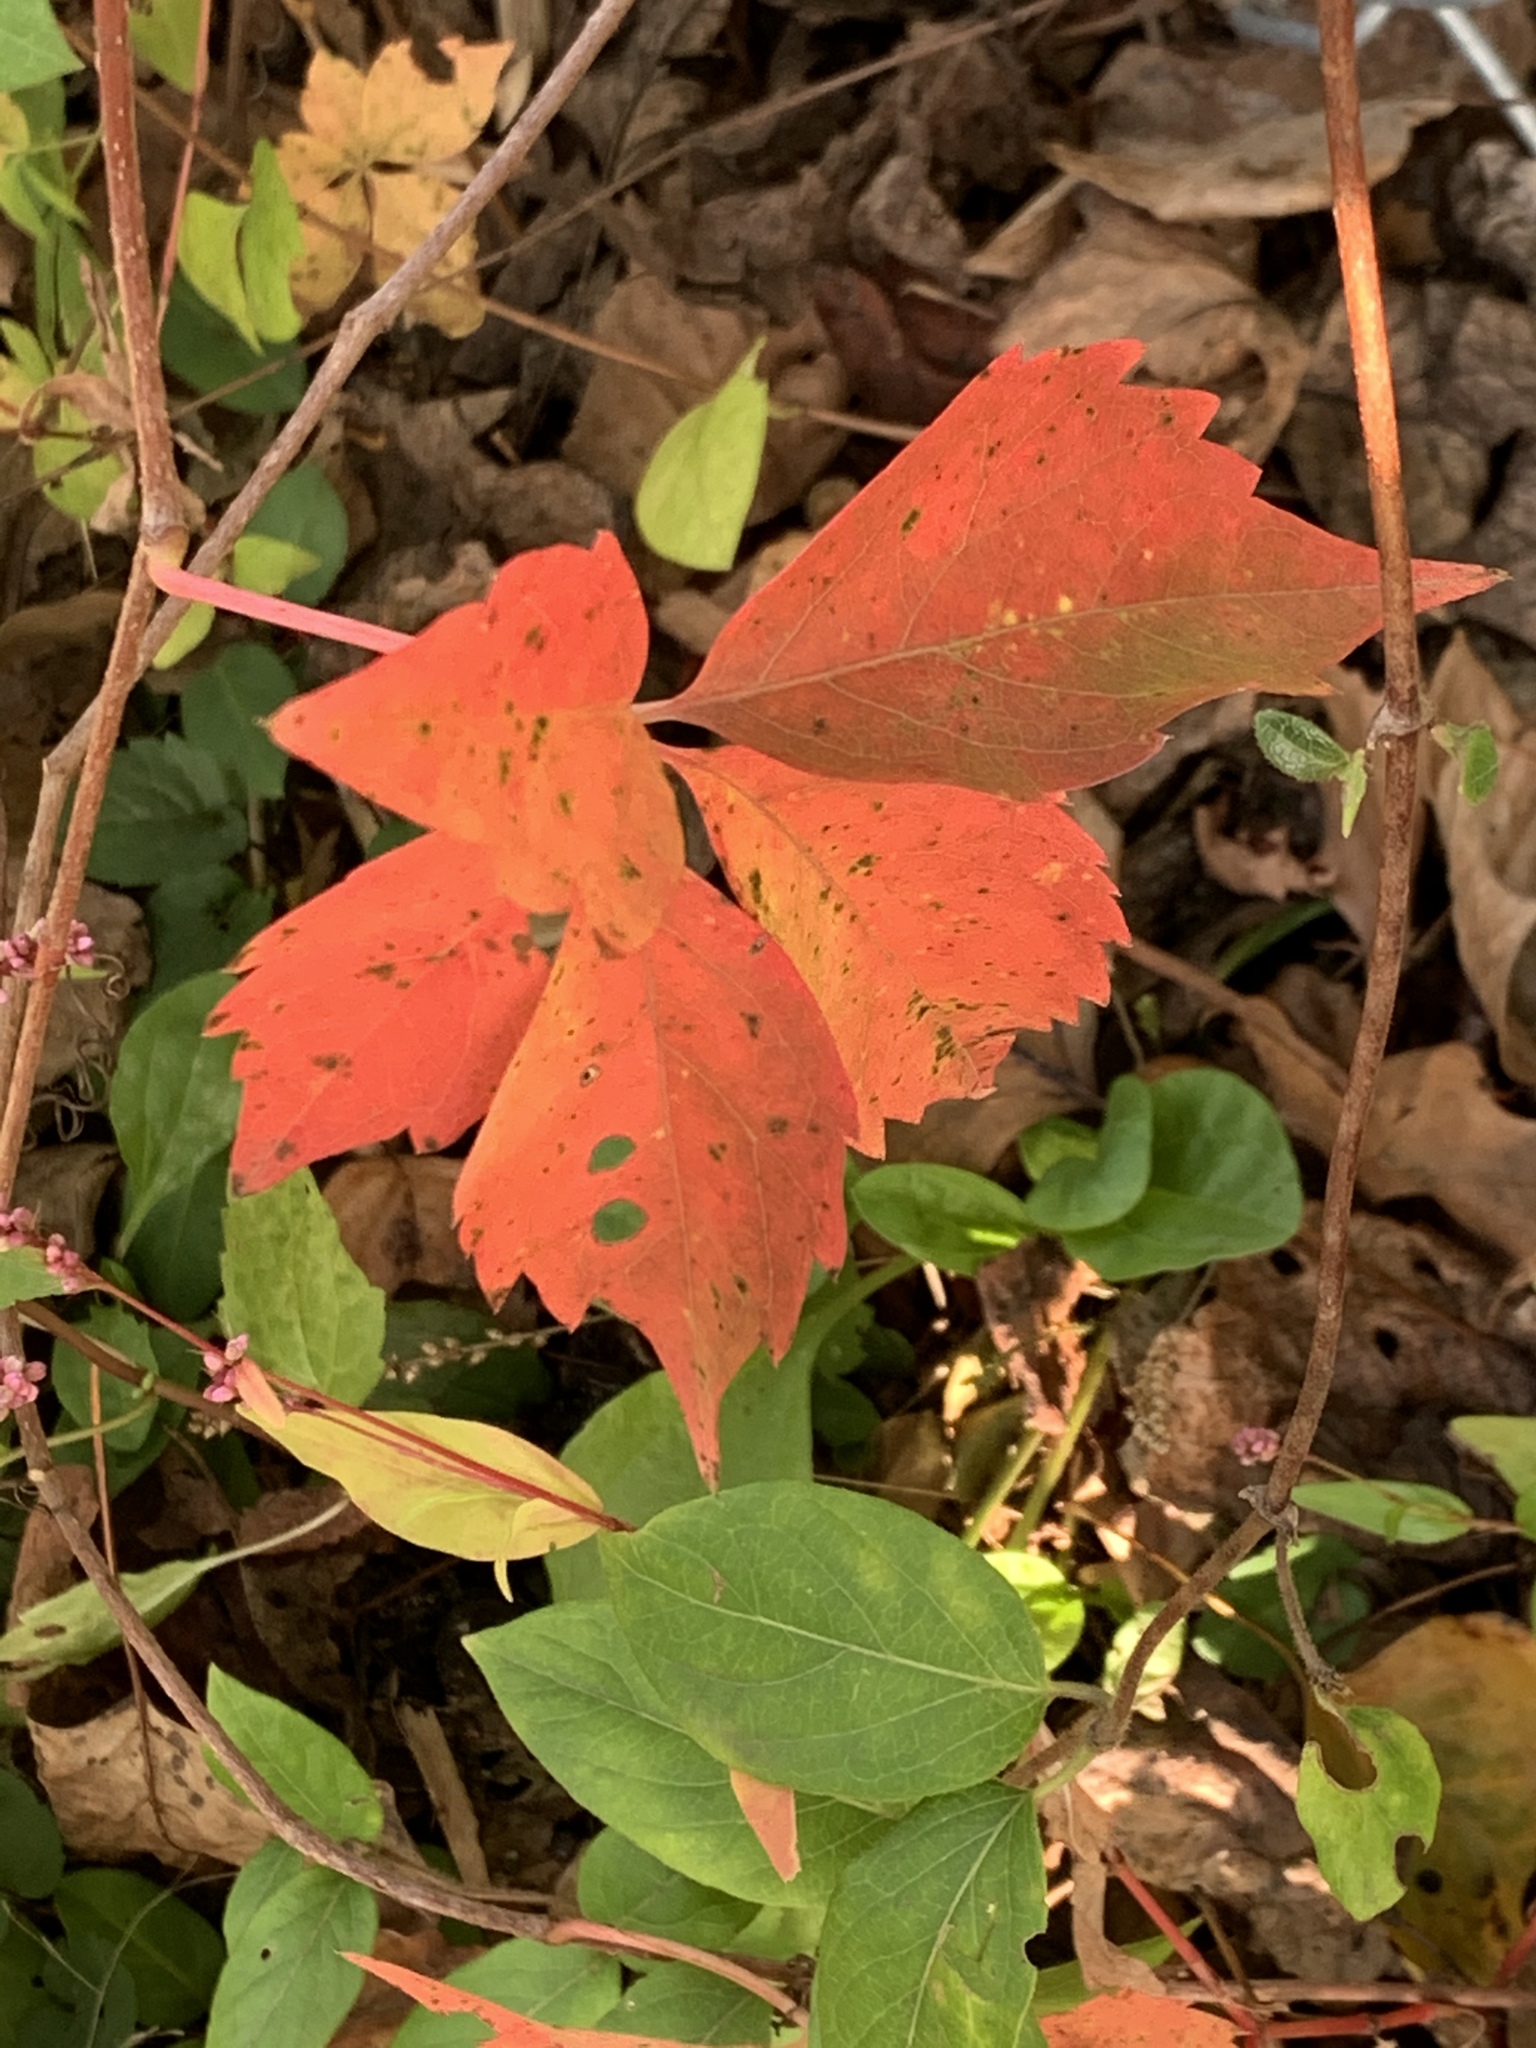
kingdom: Plantae
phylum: Tracheophyta
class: Magnoliopsida
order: Vitales
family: Vitaceae
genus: Parthenocissus
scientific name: Parthenocissus quinquefolia
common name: Virginia-creeper
